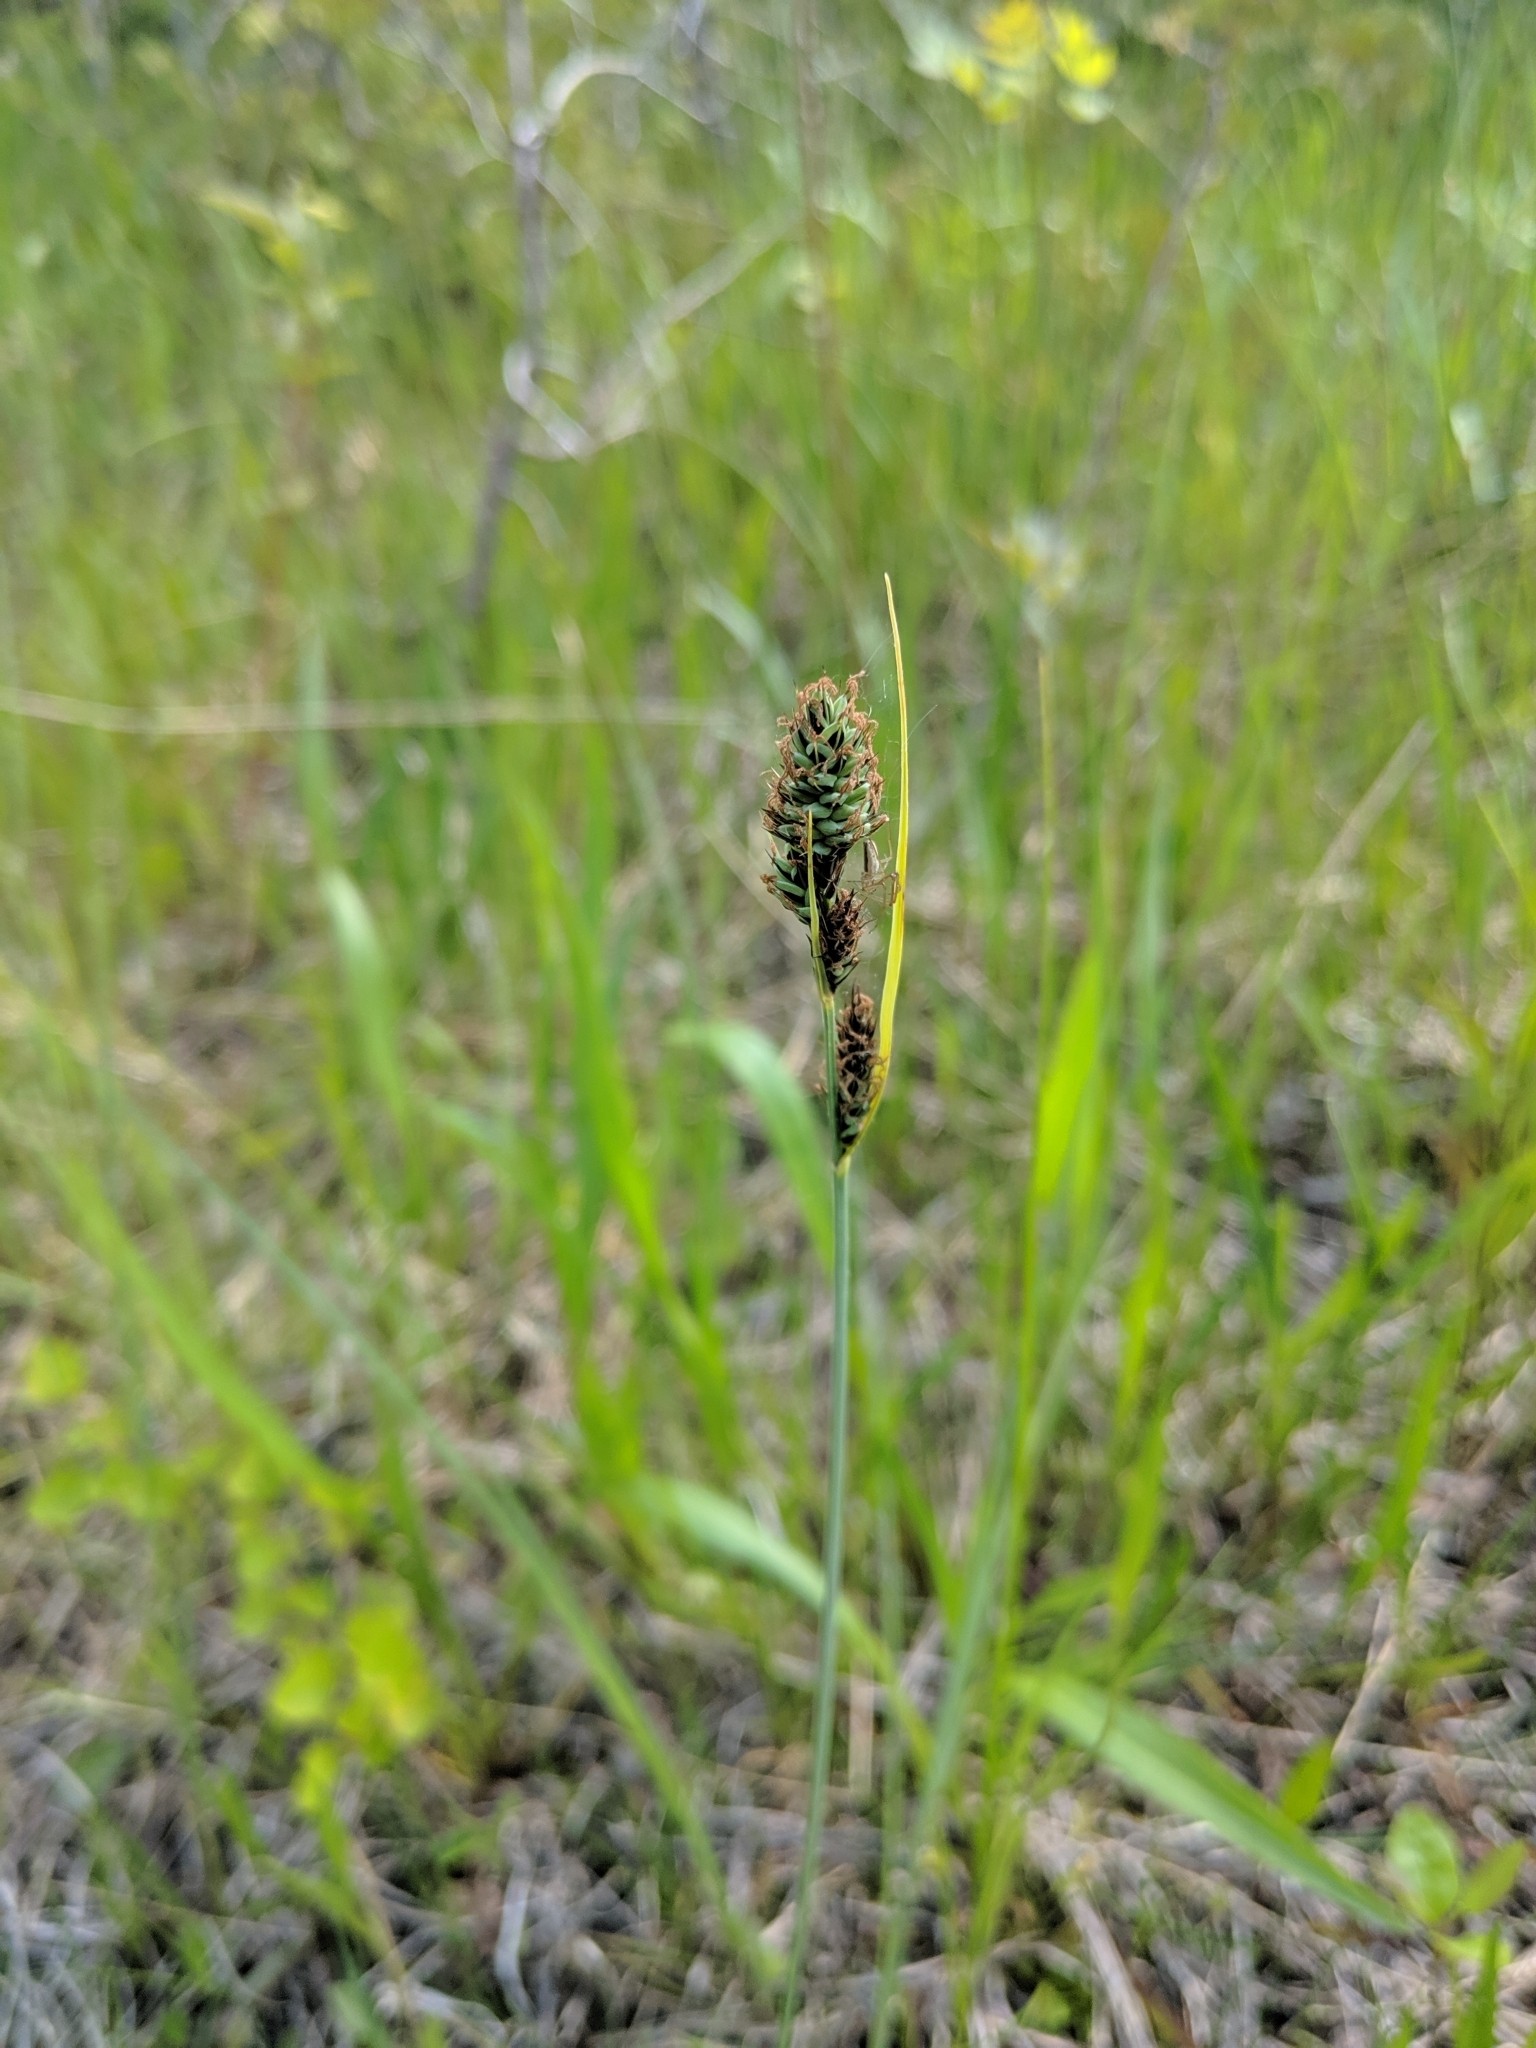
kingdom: Plantae
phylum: Tracheophyta
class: Liliopsida
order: Poales
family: Cyperaceae
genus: Carex
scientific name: Carex buxbaumii
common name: Club sedge
